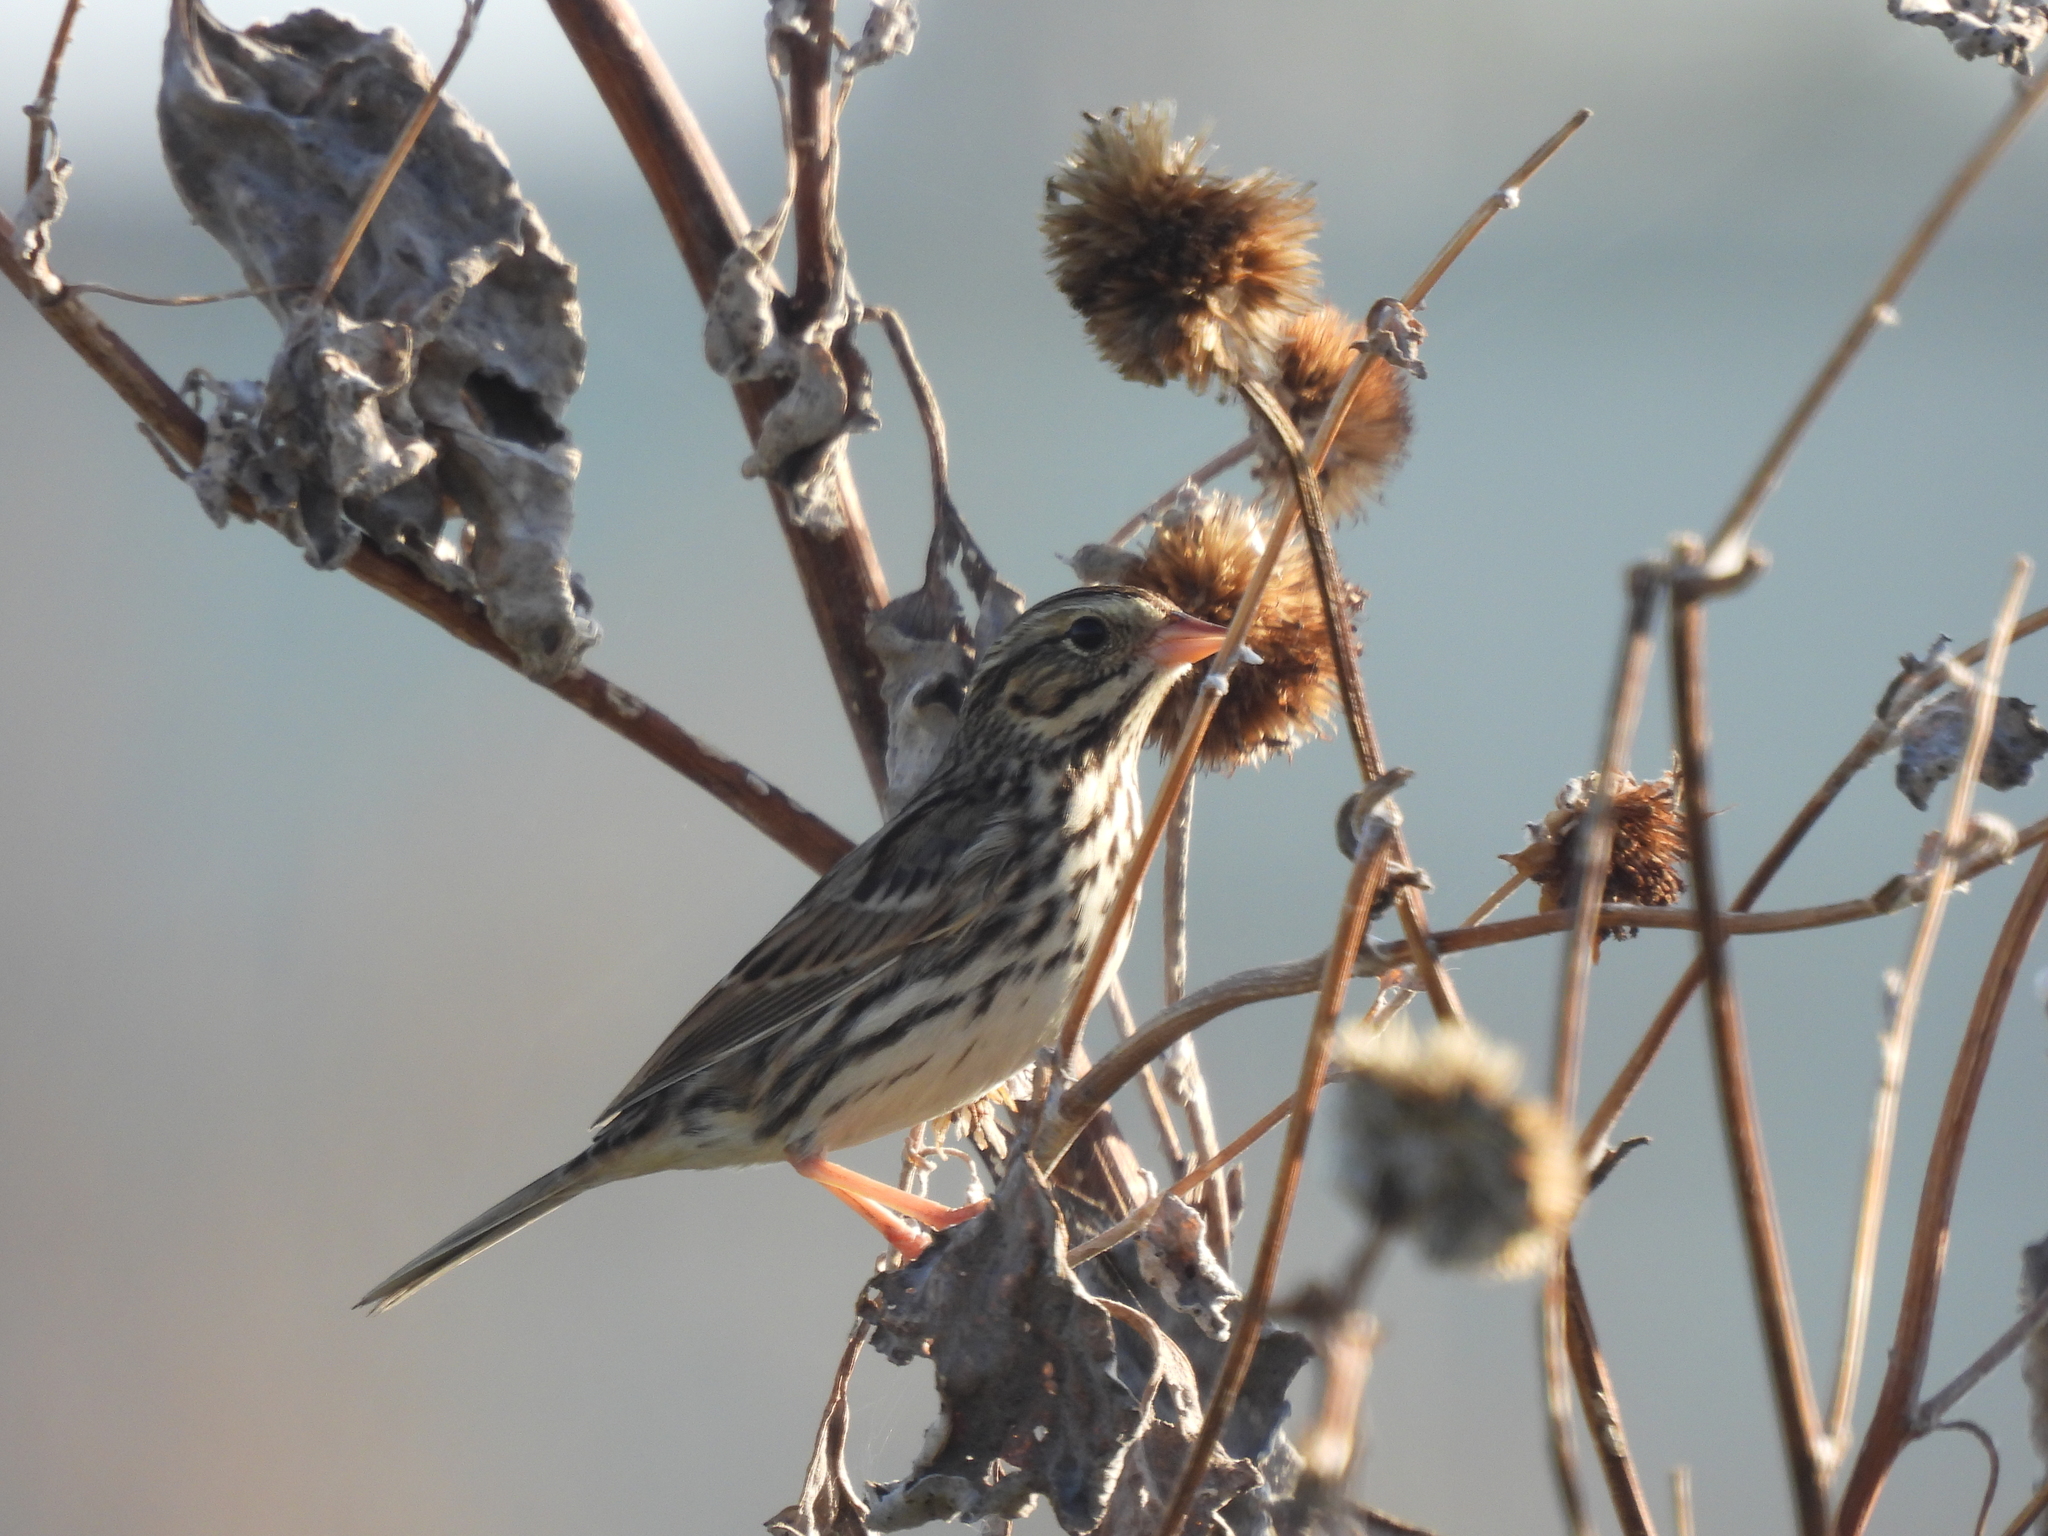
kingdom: Animalia
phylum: Chordata
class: Aves
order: Passeriformes
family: Passerellidae
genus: Passerculus
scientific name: Passerculus sandwichensis
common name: Savannah sparrow
